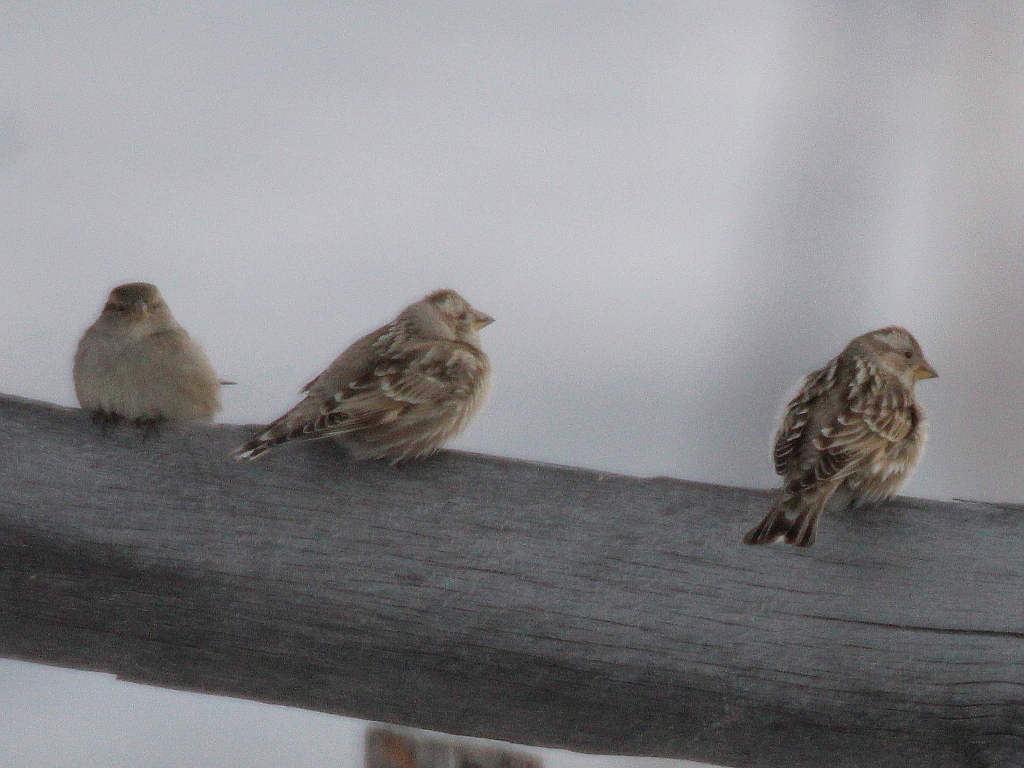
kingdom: Animalia
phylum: Chordata
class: Aves
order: Passeriformes
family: Passeridae
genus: Petronia
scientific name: Petronia petronia
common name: Rock sparrow
